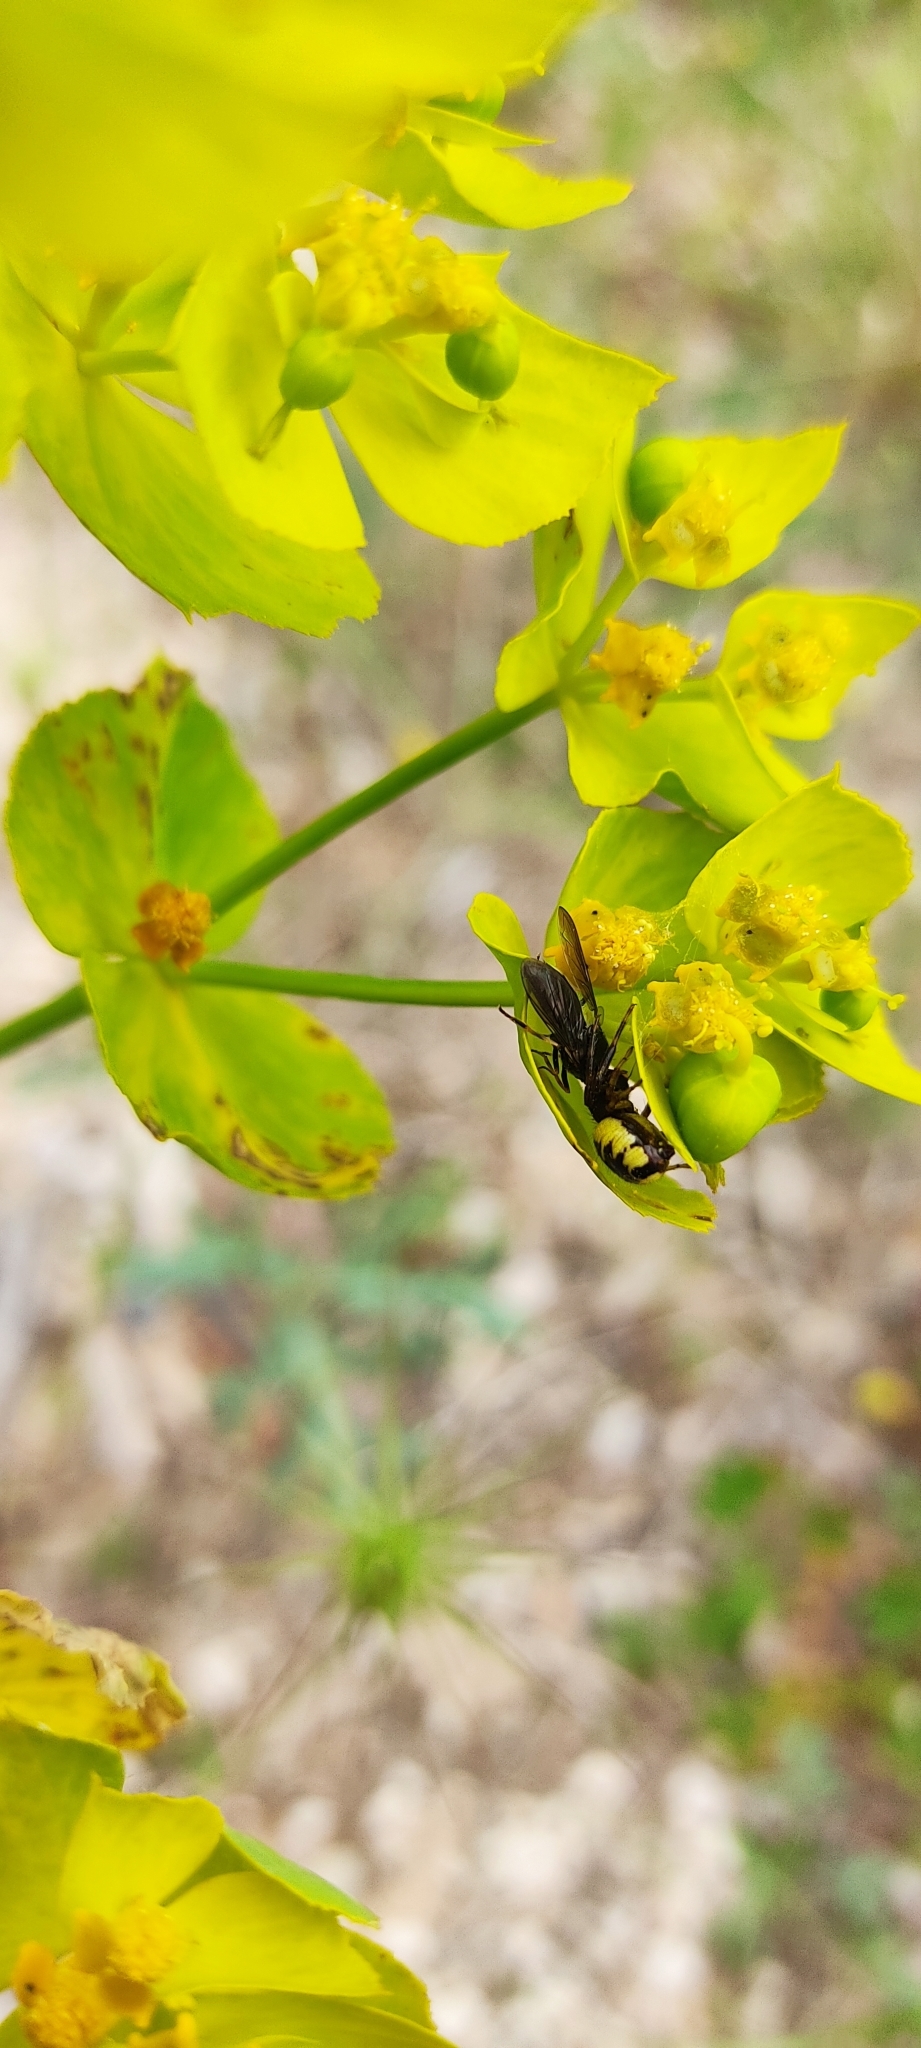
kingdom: Animalia
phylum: Arthropoda
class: Arachnida
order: Araneae
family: Thomisidae
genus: Synema
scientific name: Synema globosum
